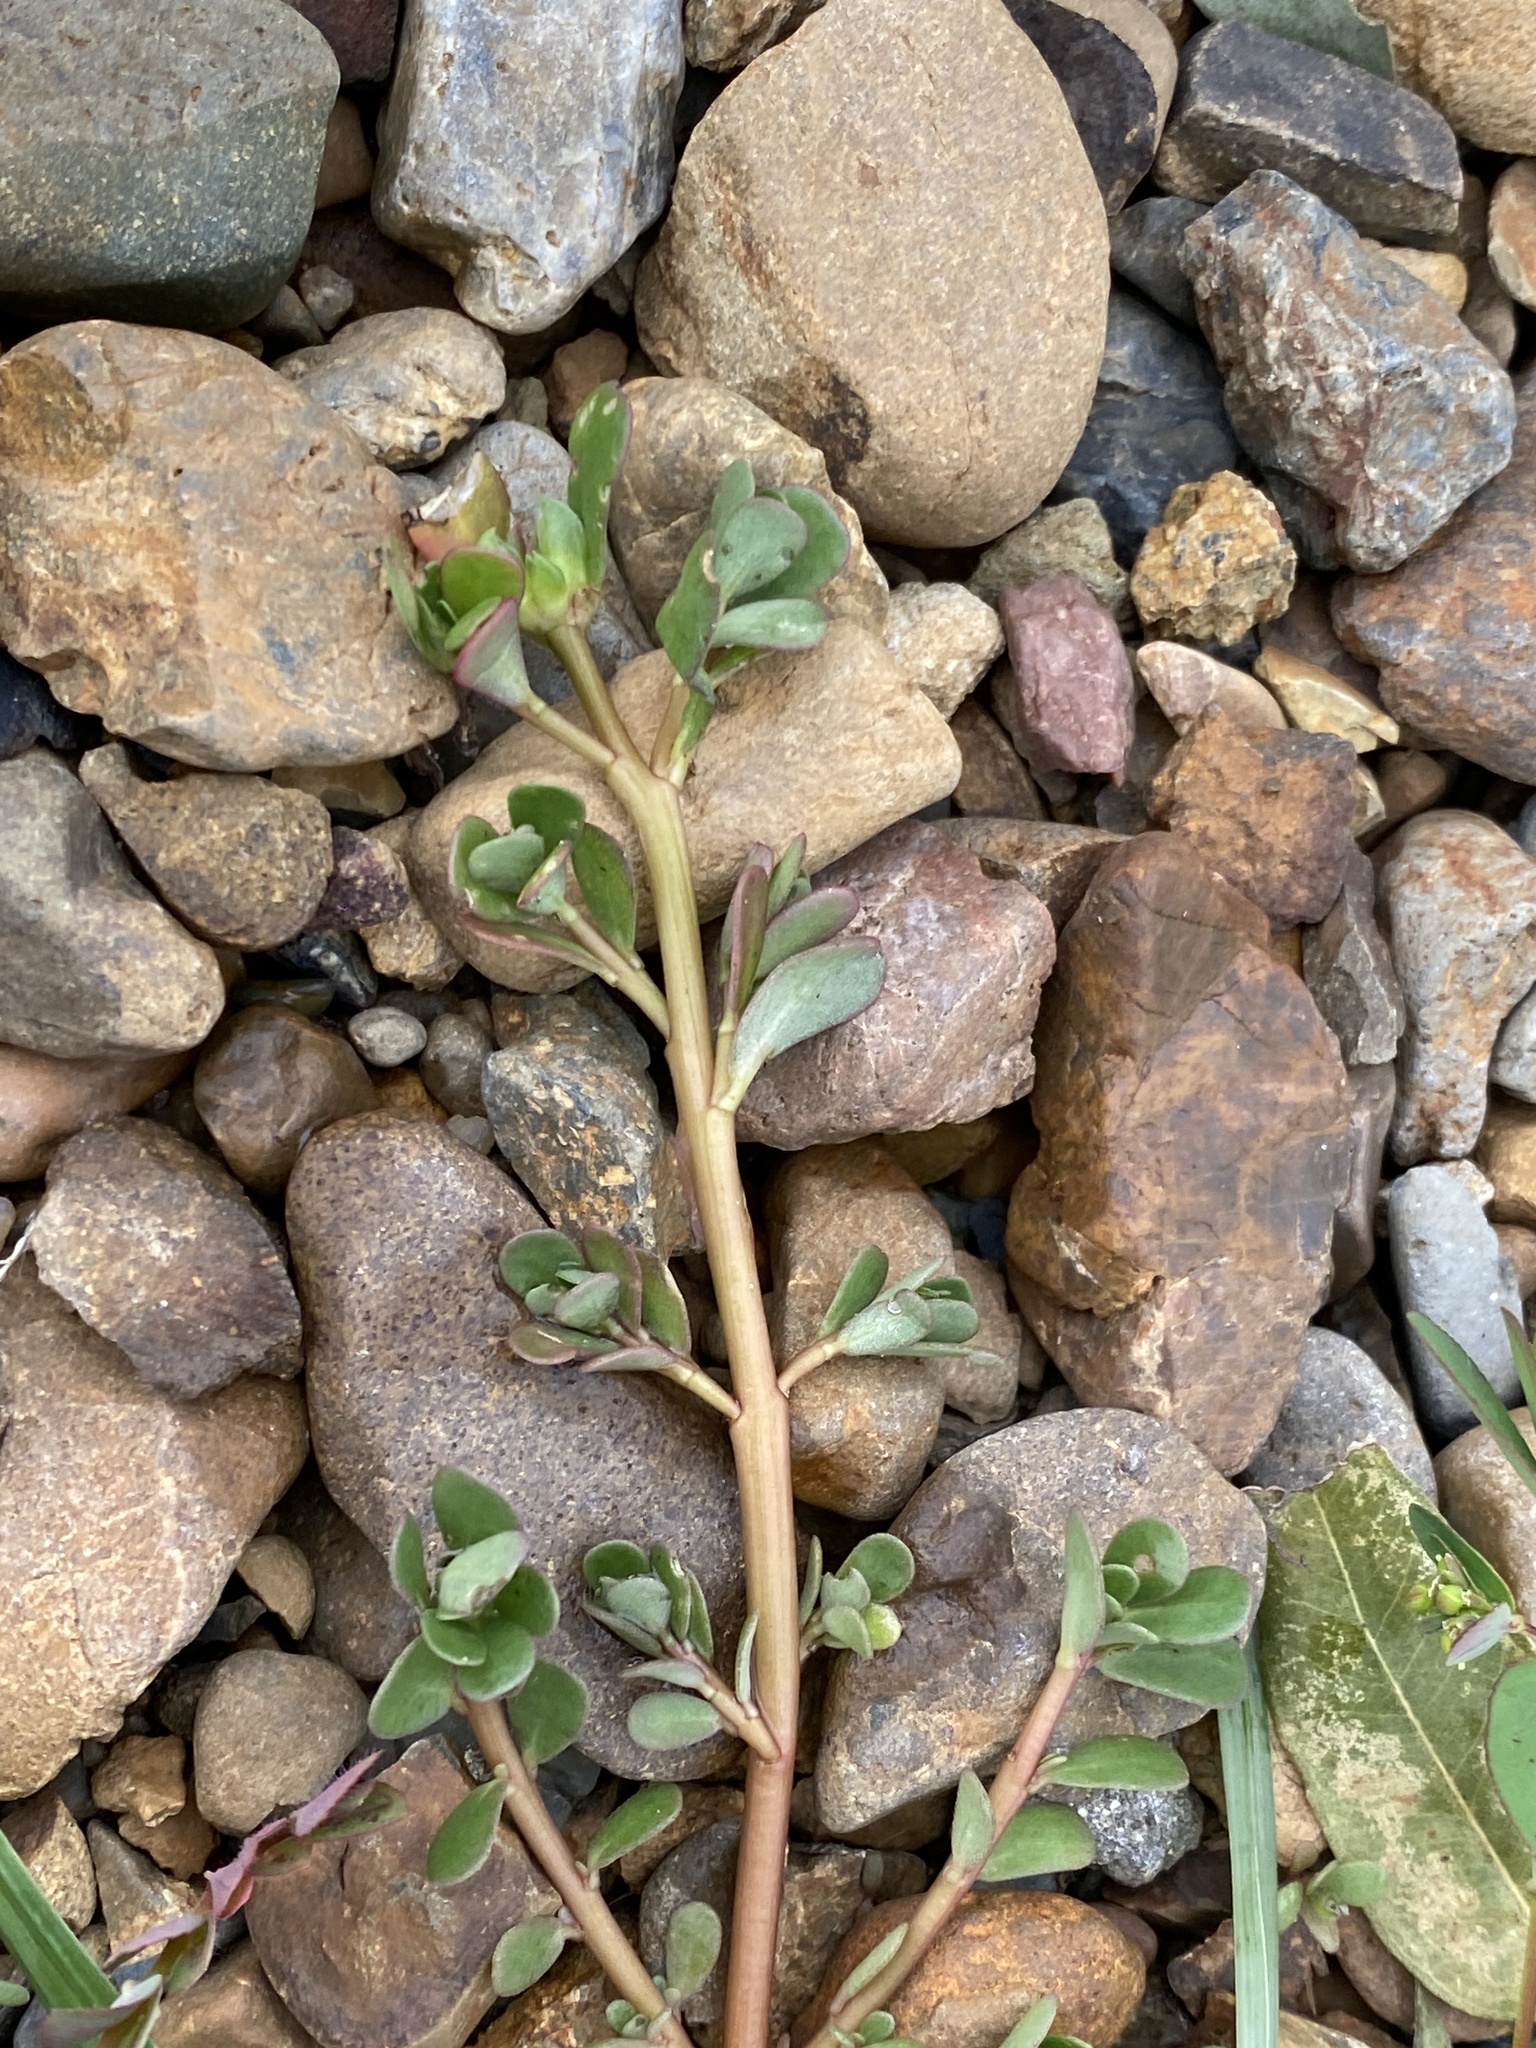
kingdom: Plantae
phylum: Tracheophyta
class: Magnoliopsida
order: Caryophyllales
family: Portulacaceae
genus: Portulaca
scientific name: Portulaca oleracea
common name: Common purslane
